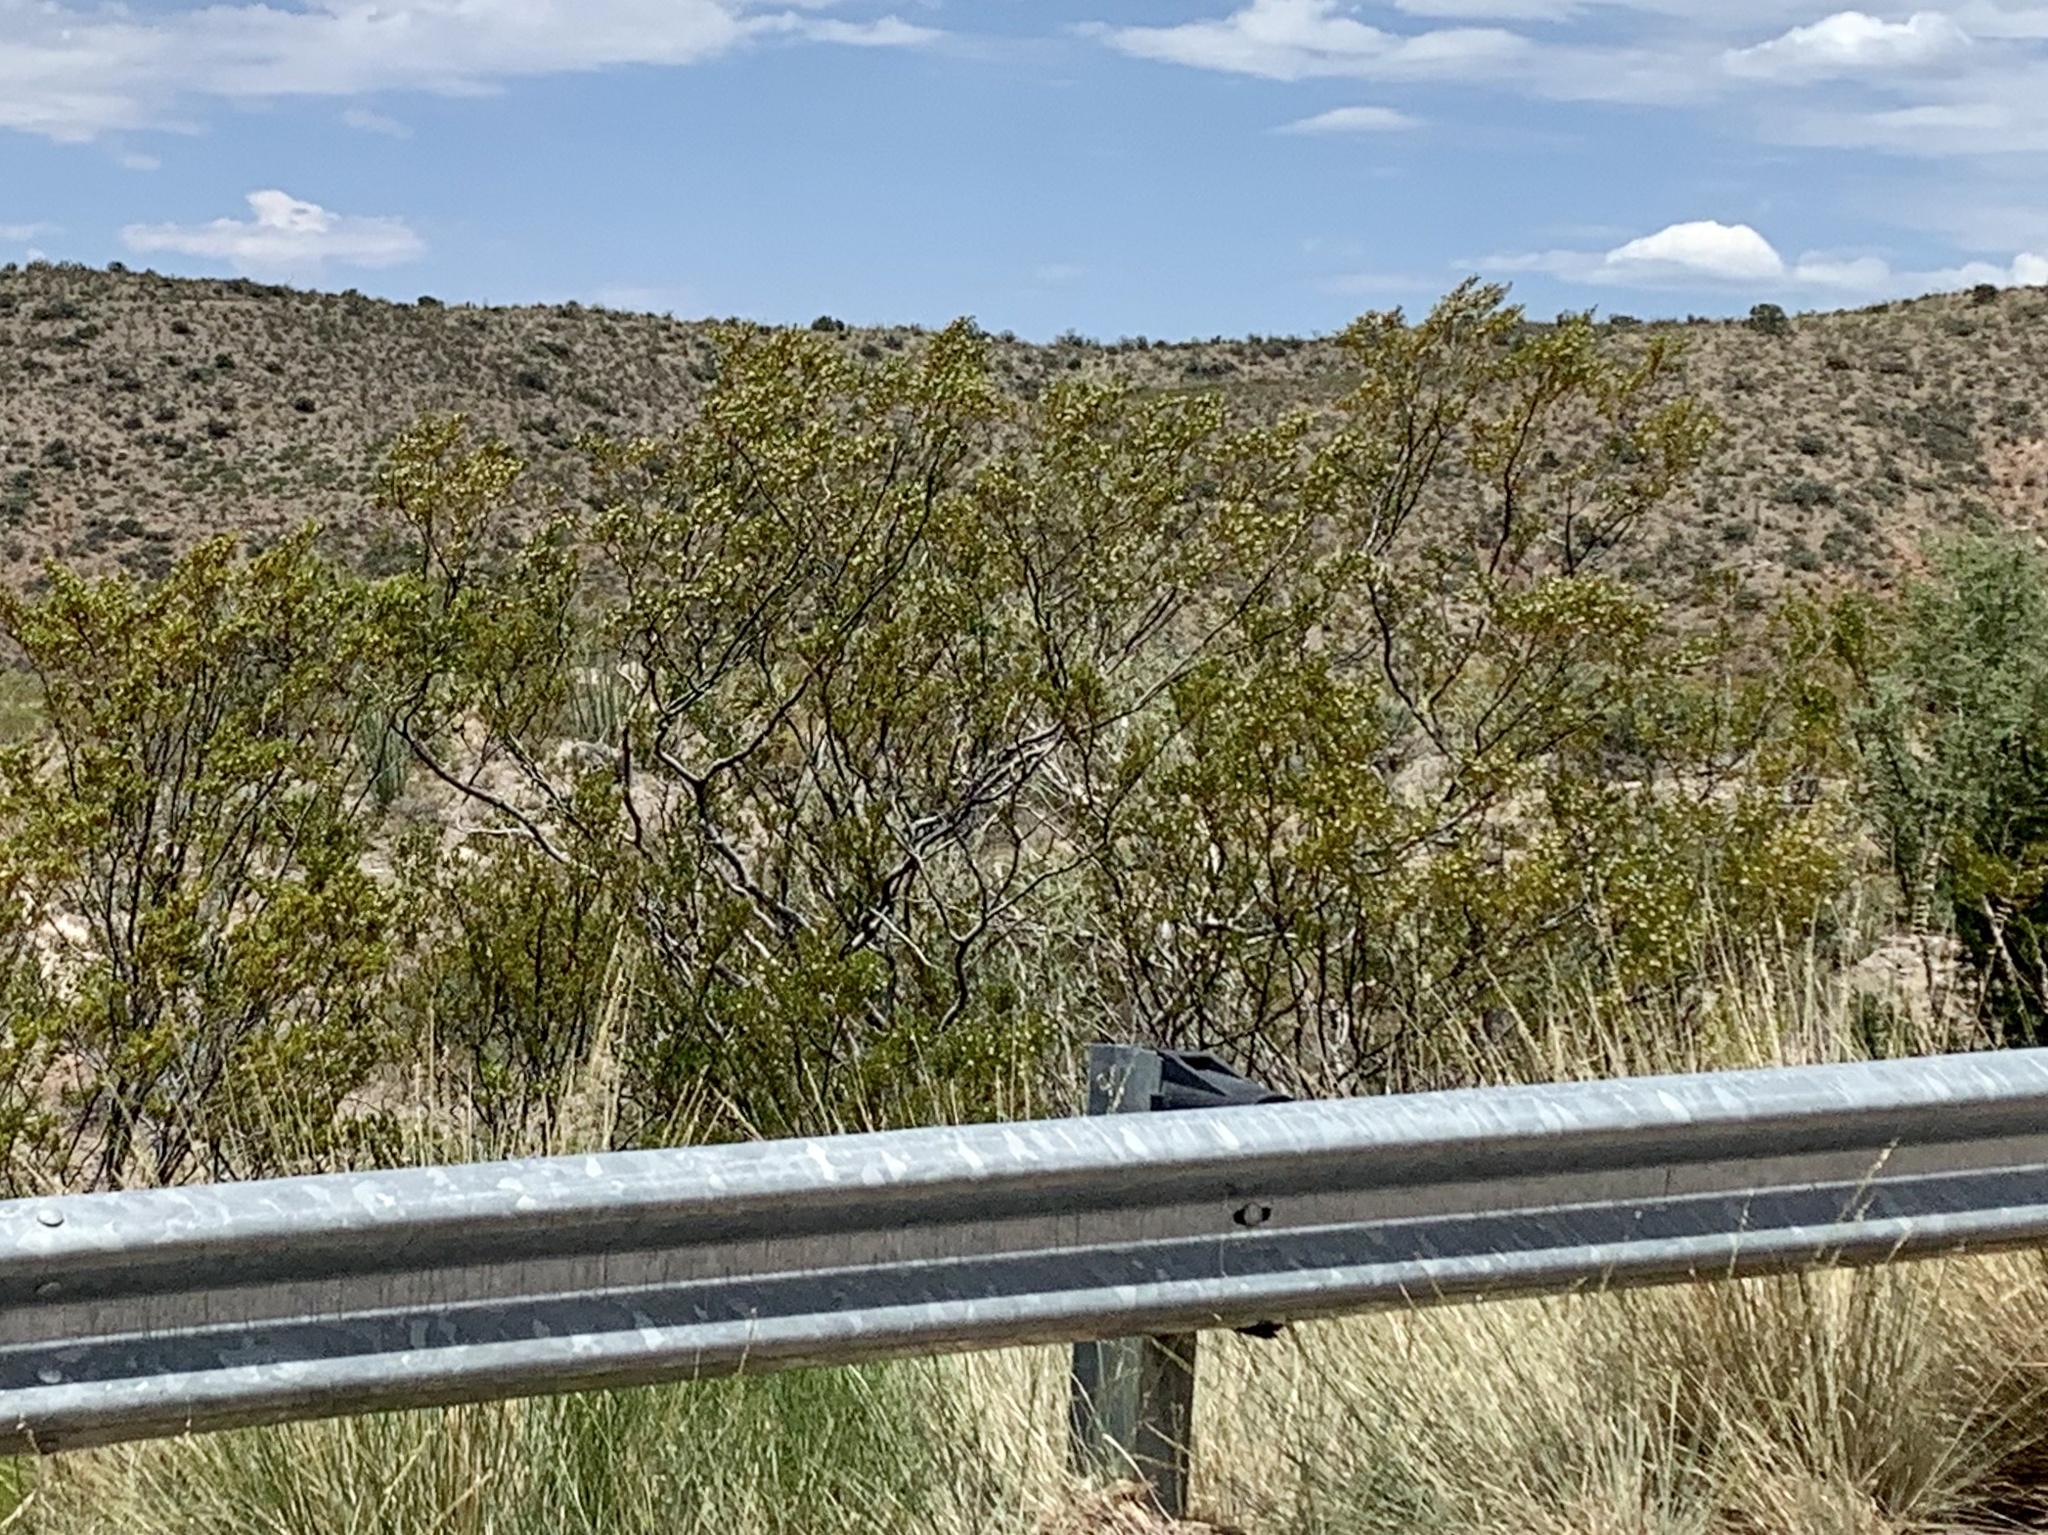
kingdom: Plantae
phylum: Tracheophyta
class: Magnoliopsida
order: Zygophyllales
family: Zygophyllaceae
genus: Larrea
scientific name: Larrea tridentata
